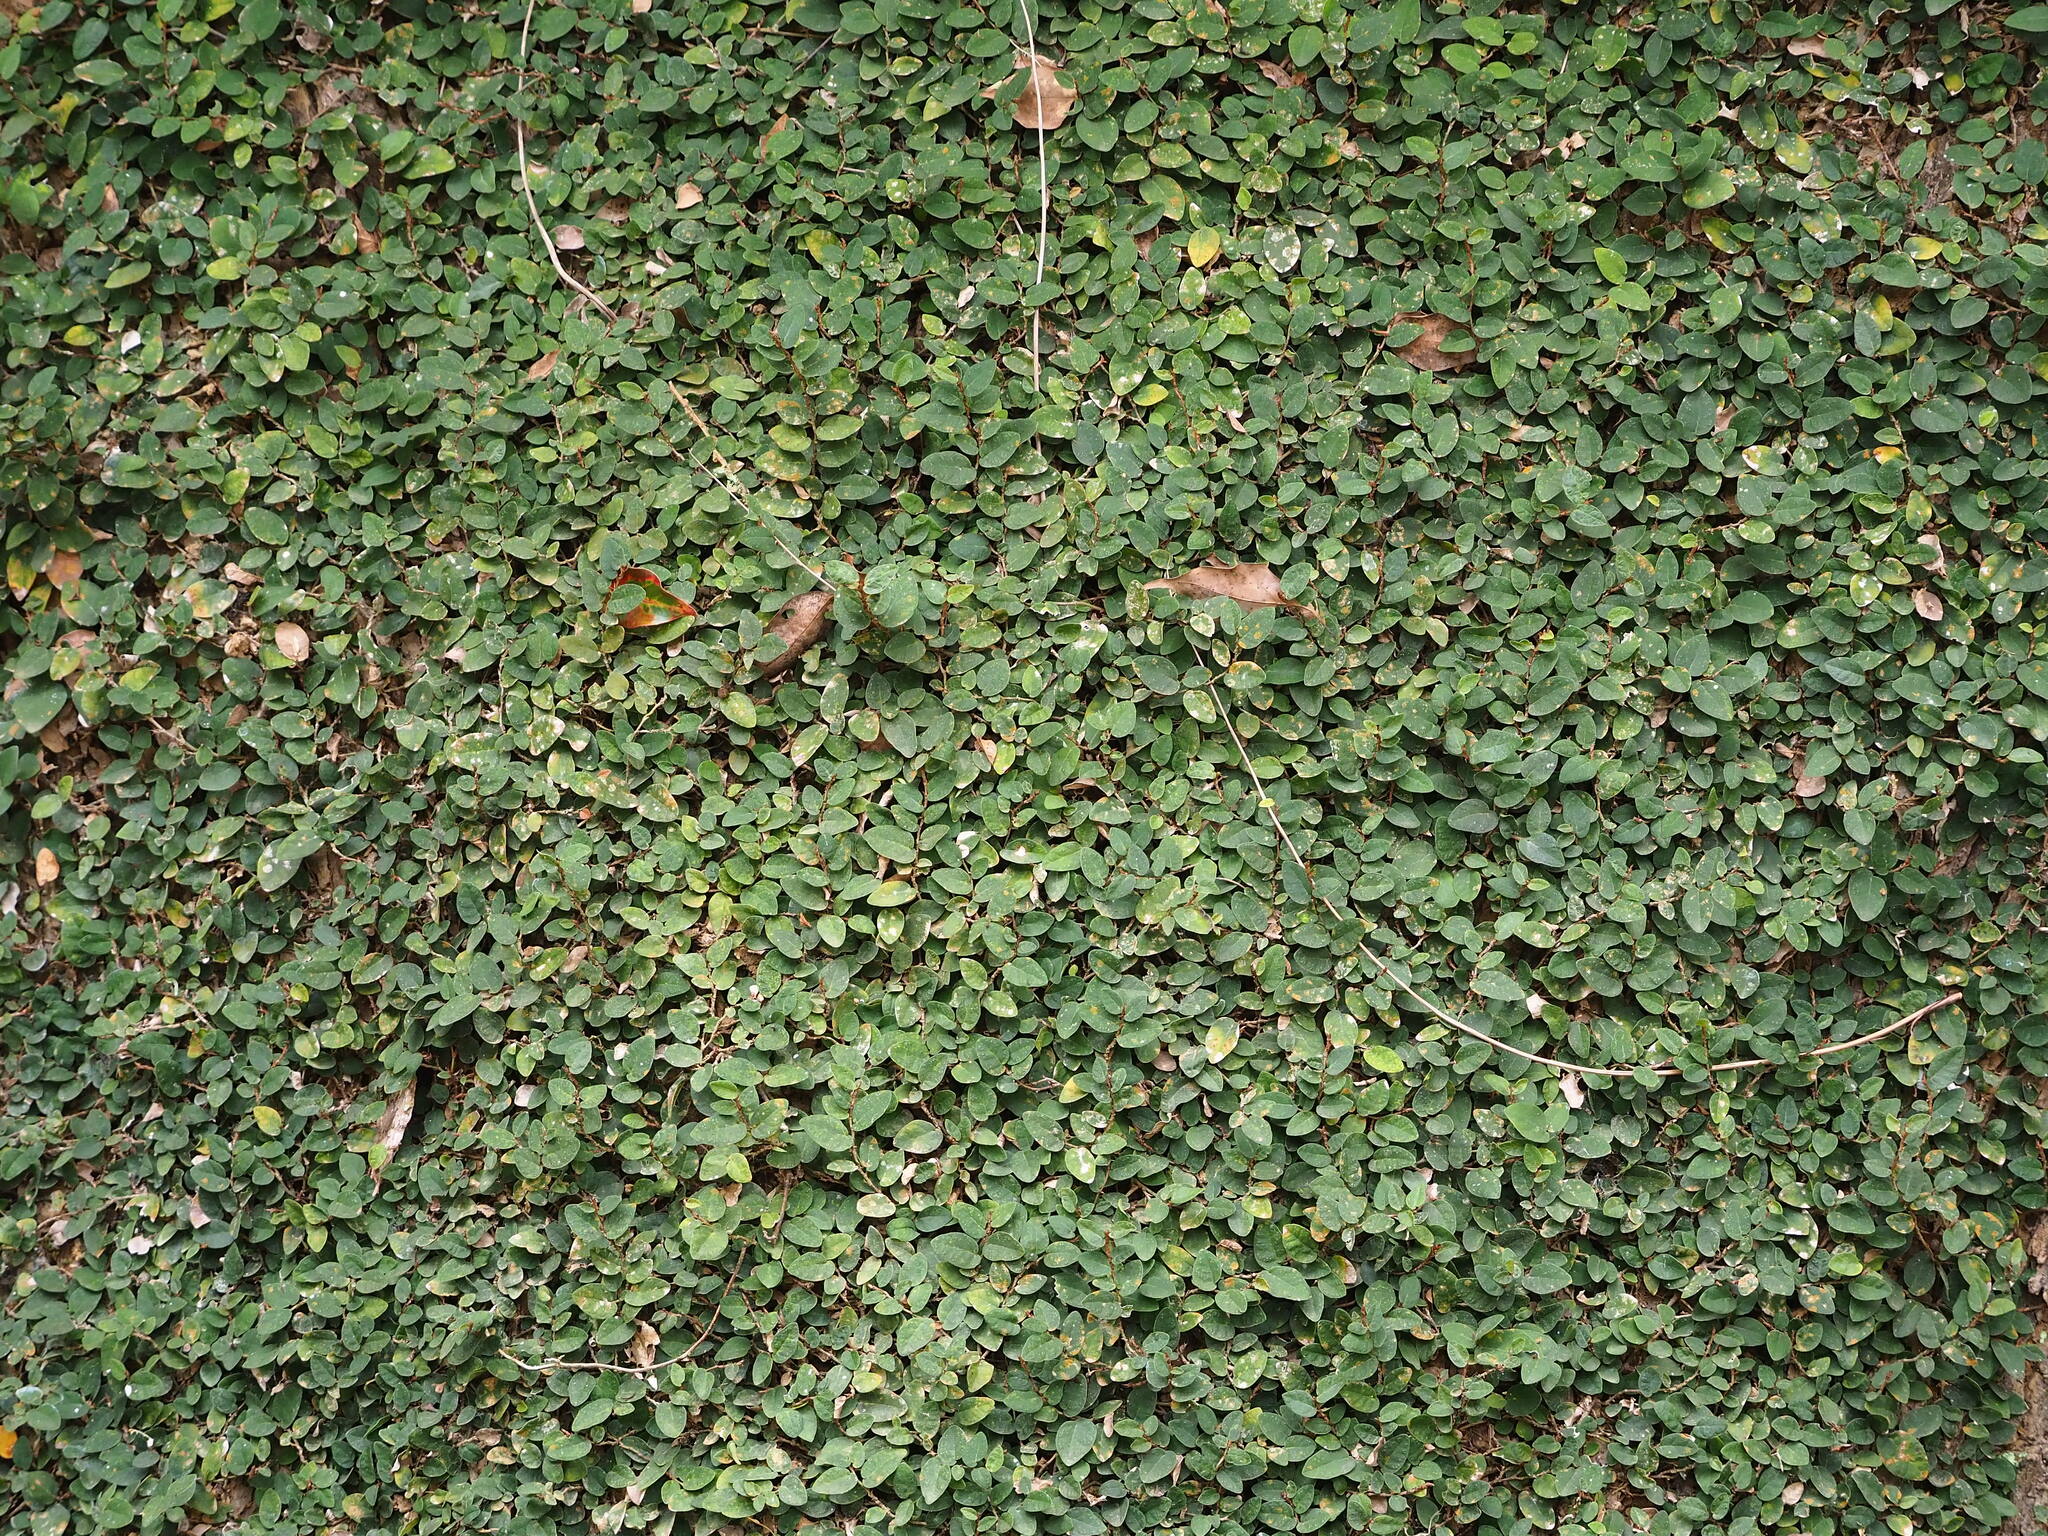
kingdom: Plantae
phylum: Tracheophyta
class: Magnoliopsida
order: Rosales
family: Moraceae
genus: Ficus
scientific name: Ficus pumila
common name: Climbingfig
